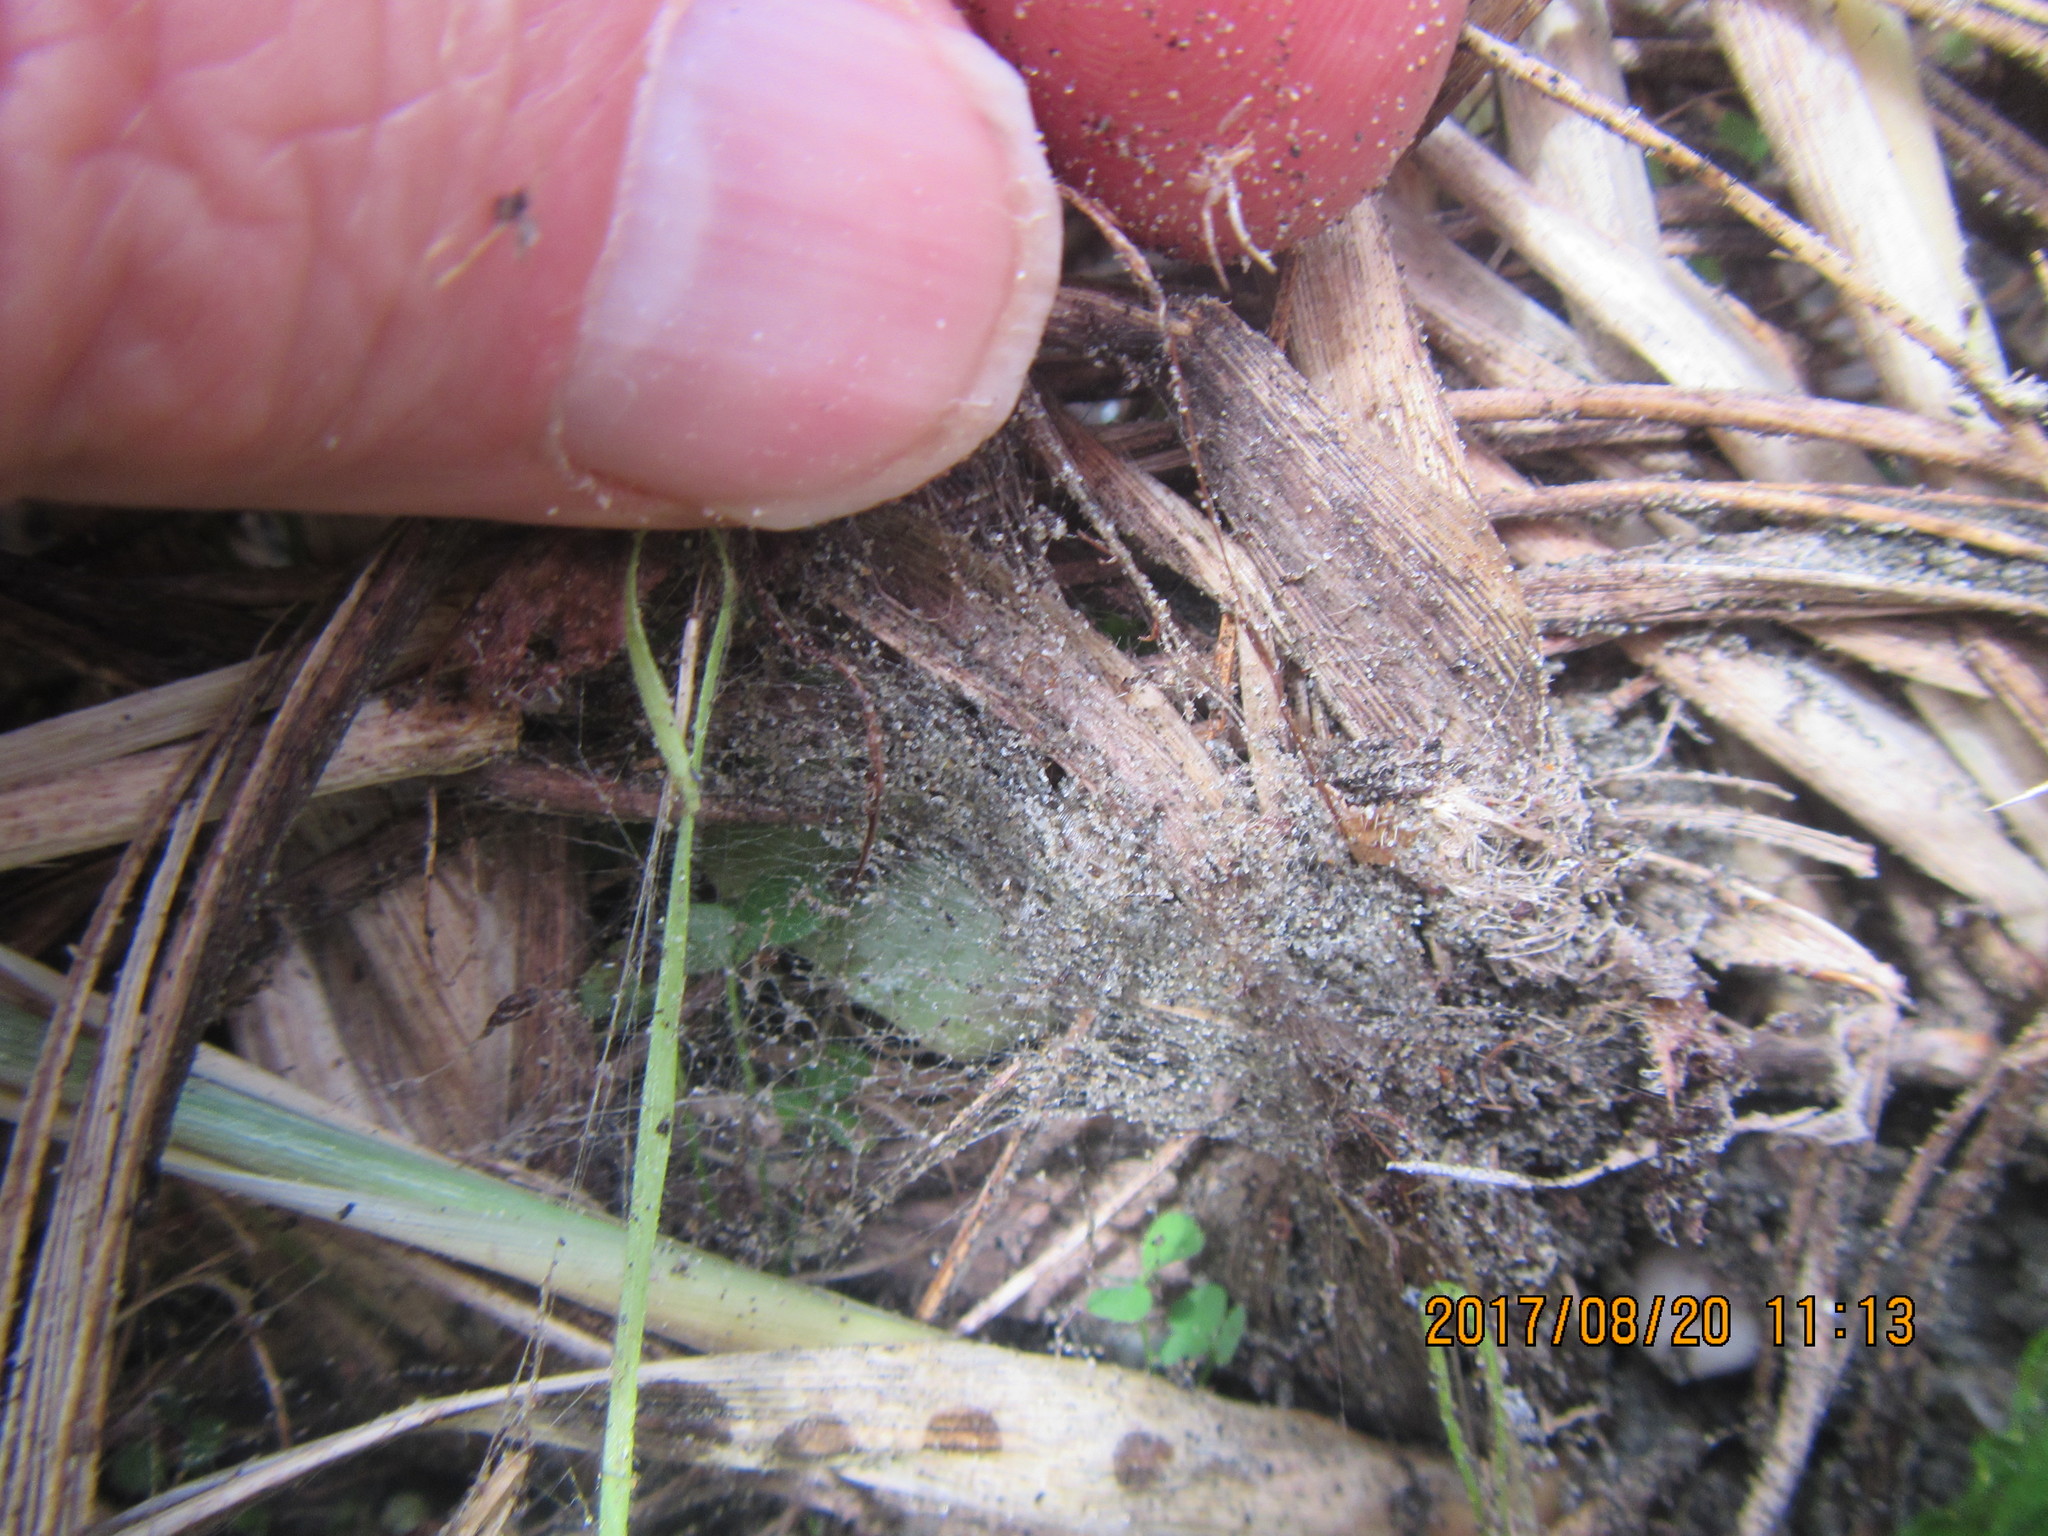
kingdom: Animalia
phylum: Arthropoda
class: Arachnida
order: Araneae
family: Theridiidae
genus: Steatoda
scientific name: Steatoda capensis
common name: Cobweb weaver
